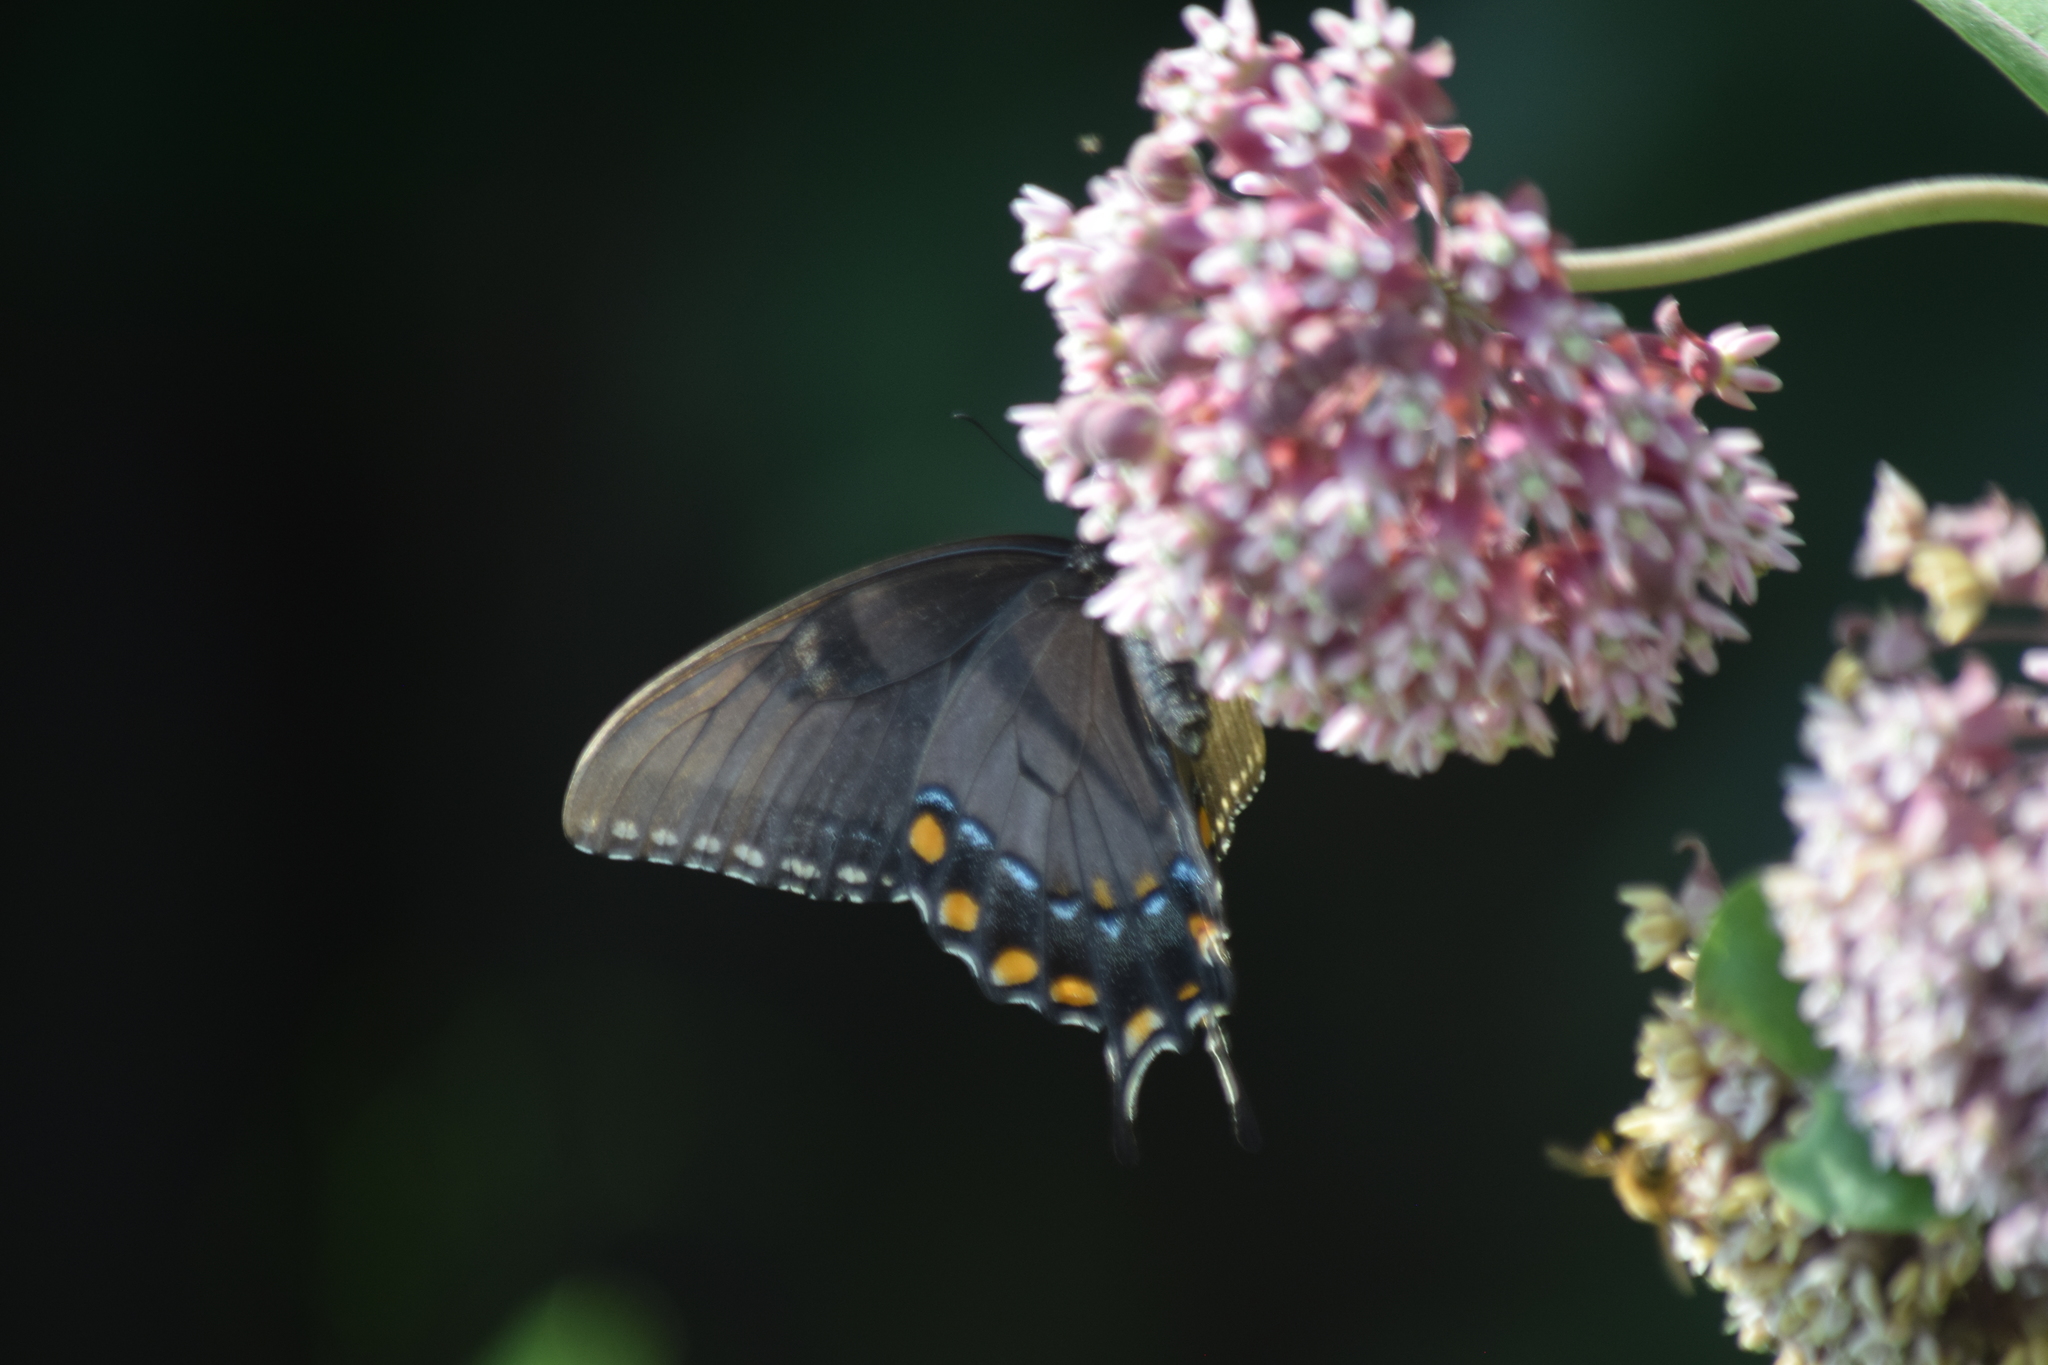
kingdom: Animalia
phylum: Arthropoda
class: Insecta
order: Lepidoptera
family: Papilionidae
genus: Papilio
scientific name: Papilio glaucus
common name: Tiger swallowtail
